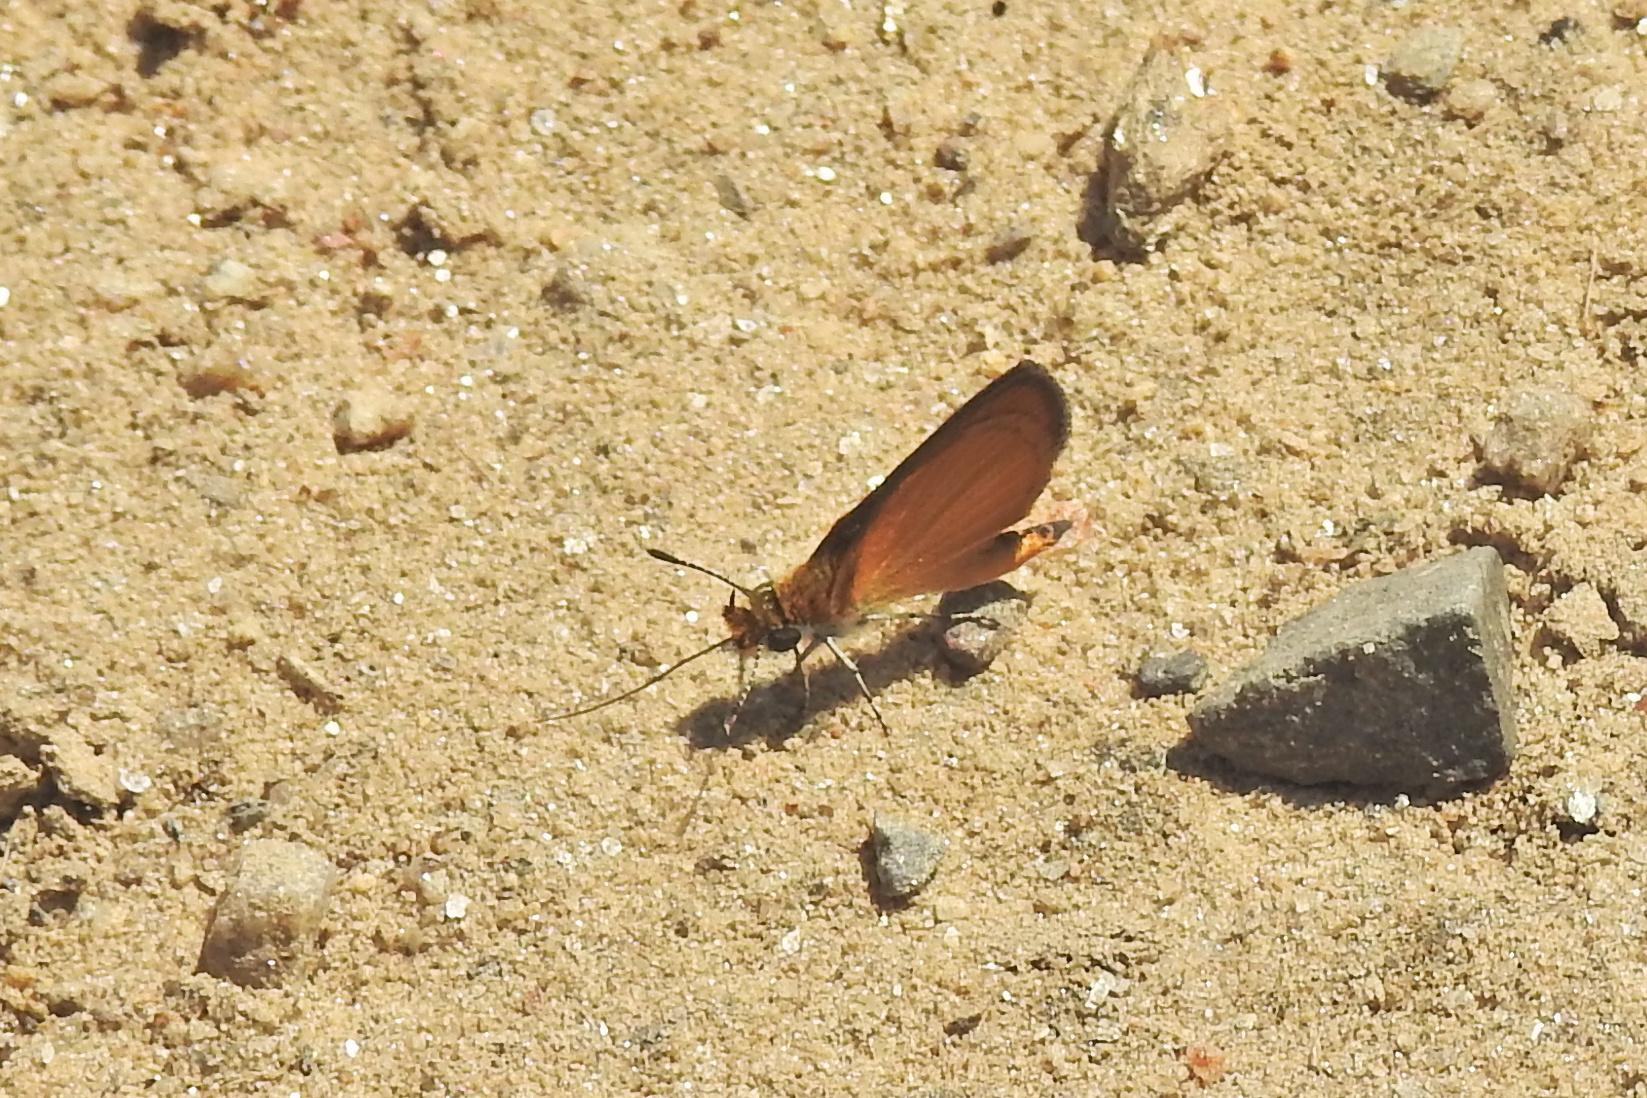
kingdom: Animalia
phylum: Arthropoda
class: Insecta
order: Lepidoptera
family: Hesperiidae
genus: Ancyloxypha
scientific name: Ancyloxypha numitor
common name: Least skipper
